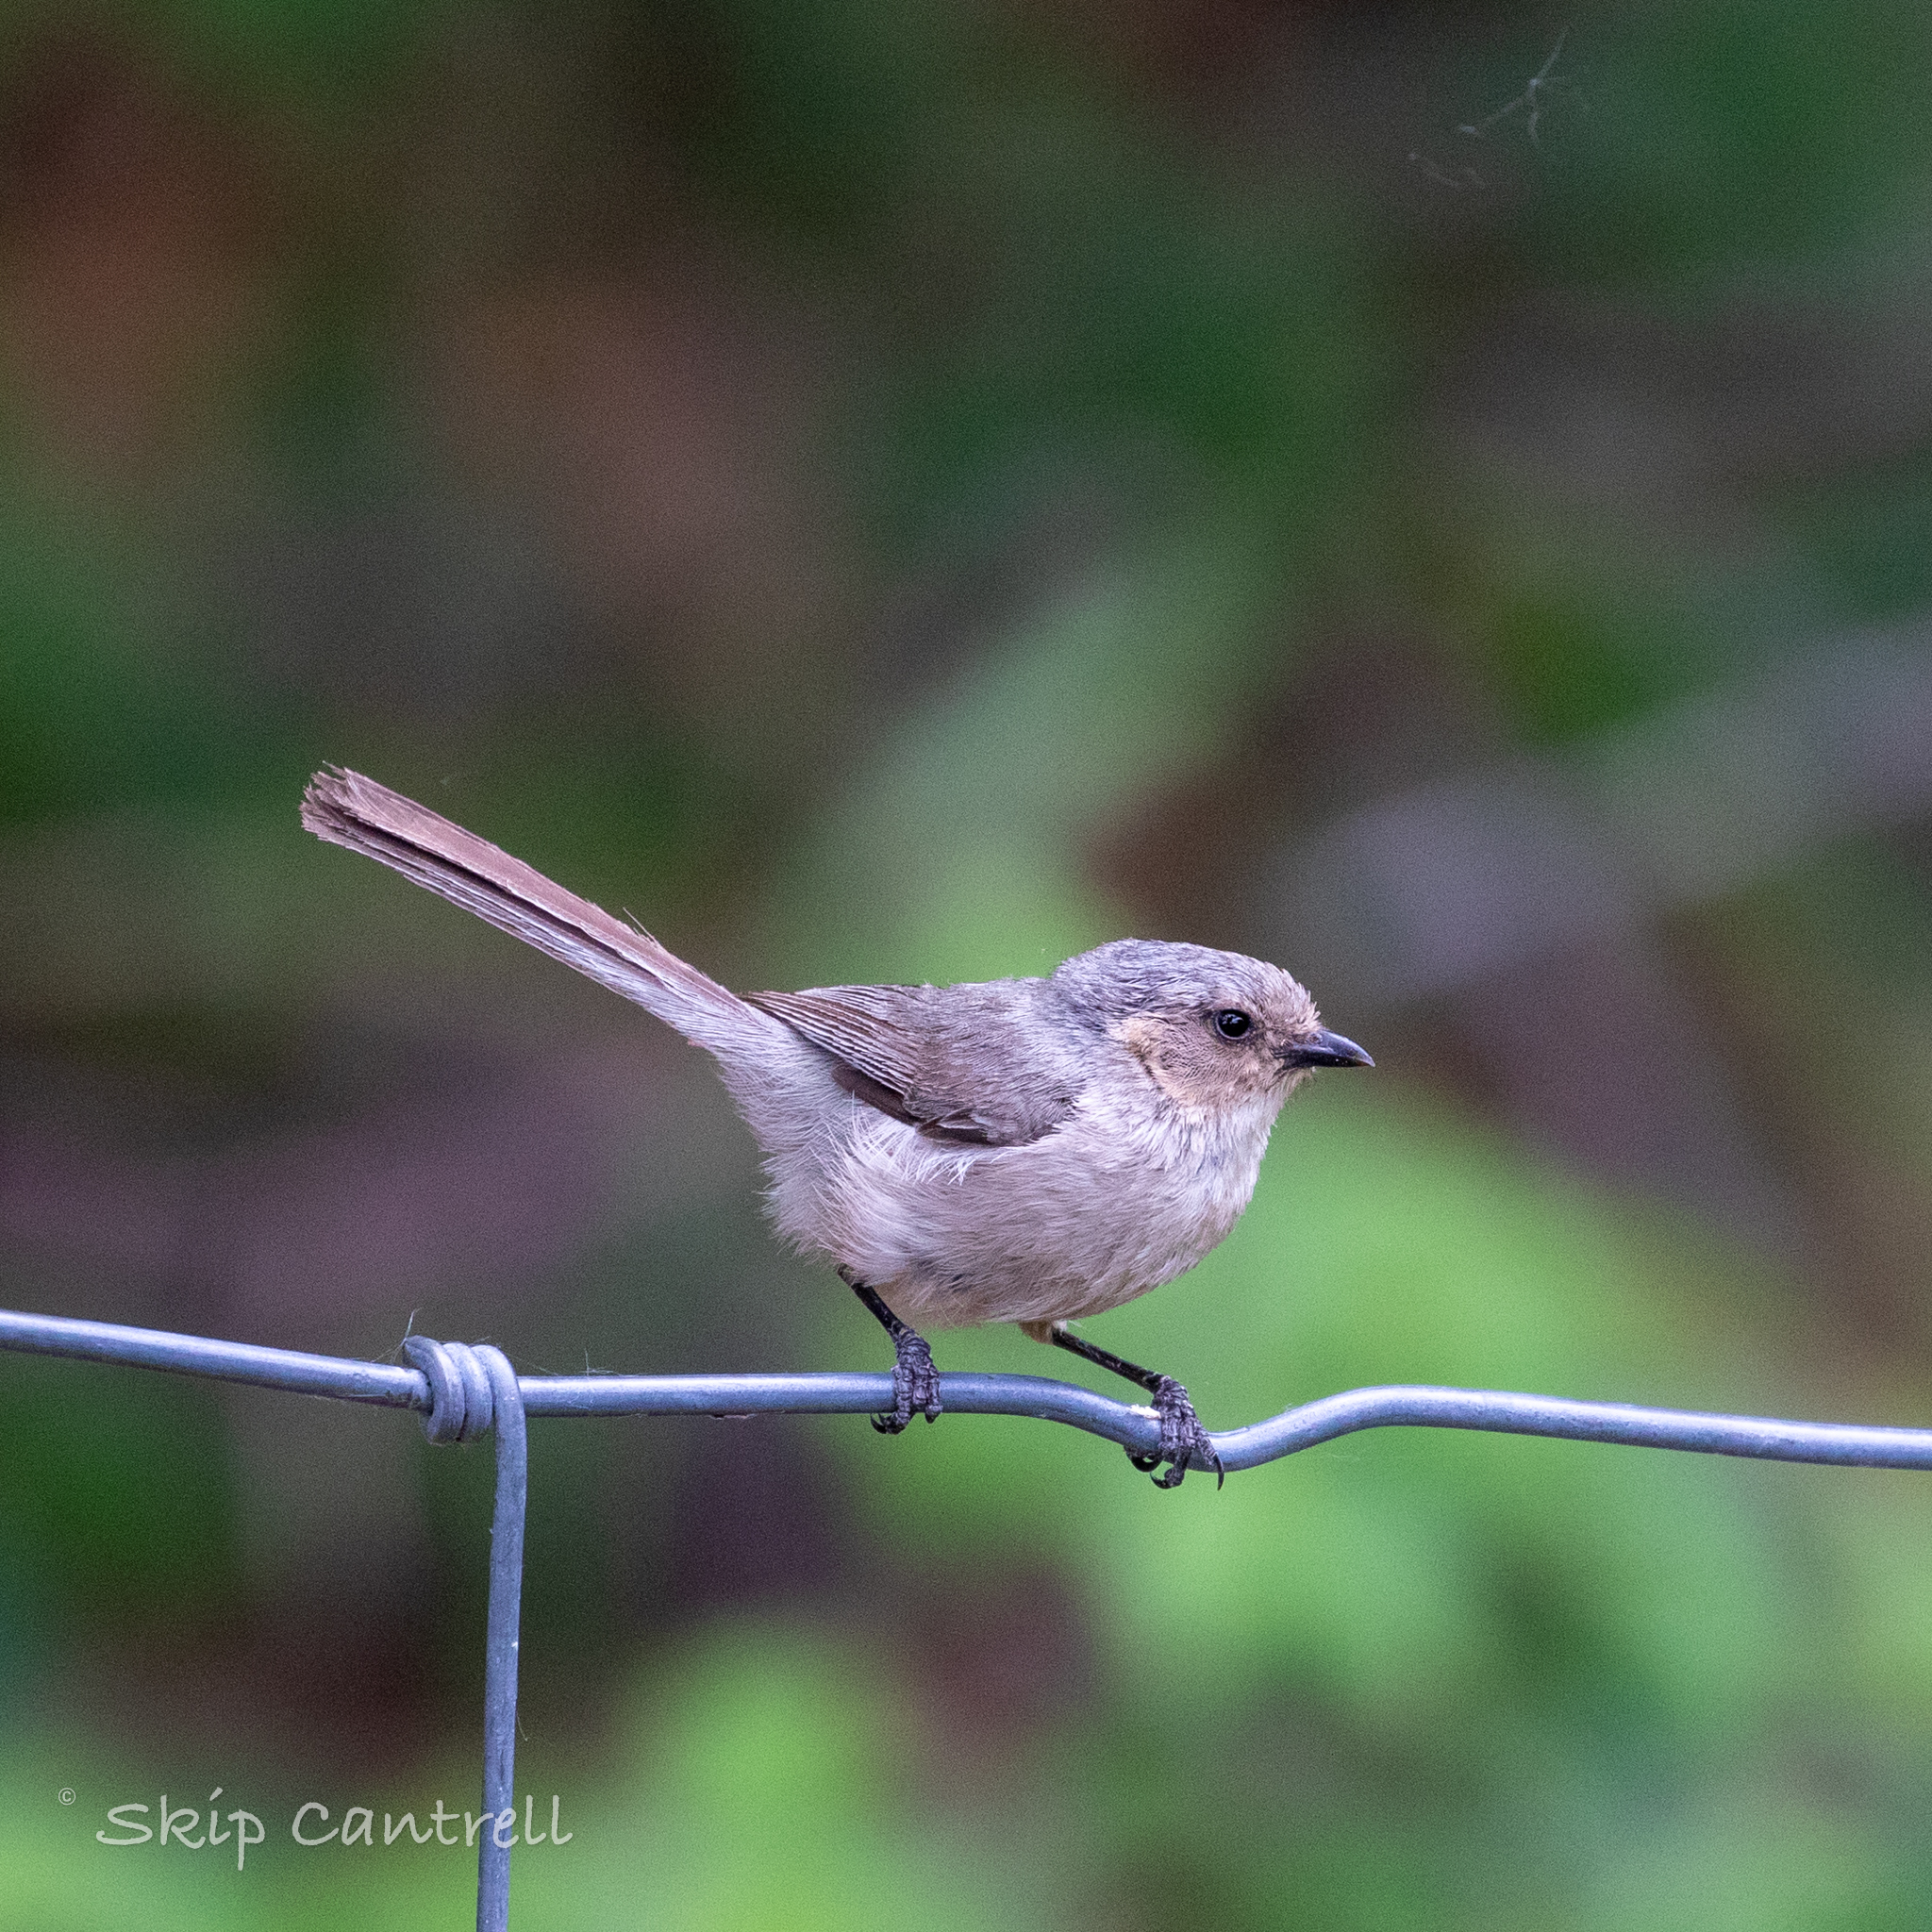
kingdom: Animalia
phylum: Chordata
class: Aves
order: Passeriformes
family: Aegithalidae
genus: Psaltriparus
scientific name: Psaltriparus minimus
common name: American bushtit
